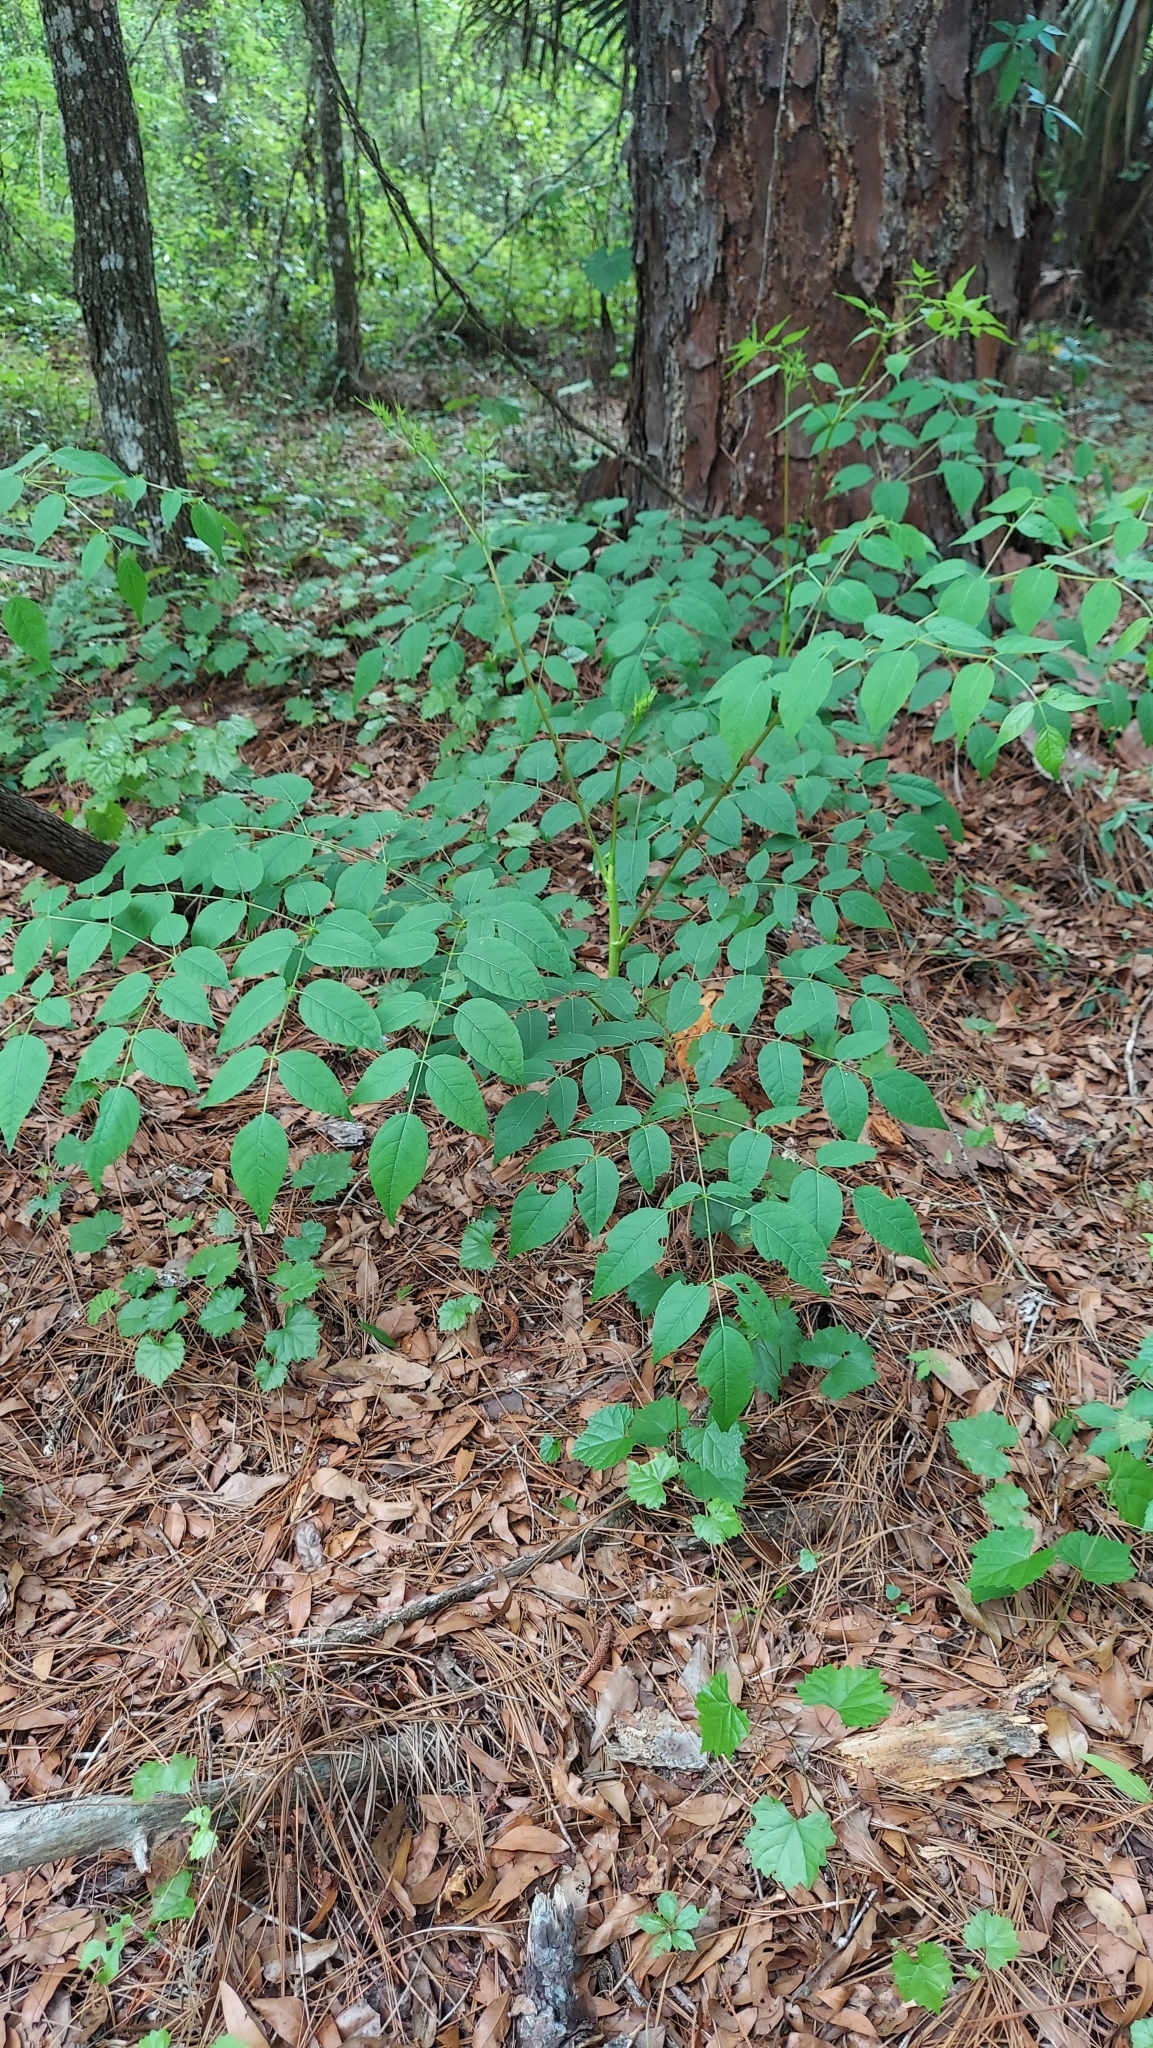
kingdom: Plantae
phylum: Tracheophyta
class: Magnoliopsida
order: Apiales
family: Araliaceae
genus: Aralia
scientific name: Aralia spinosa
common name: Hercules'-club
